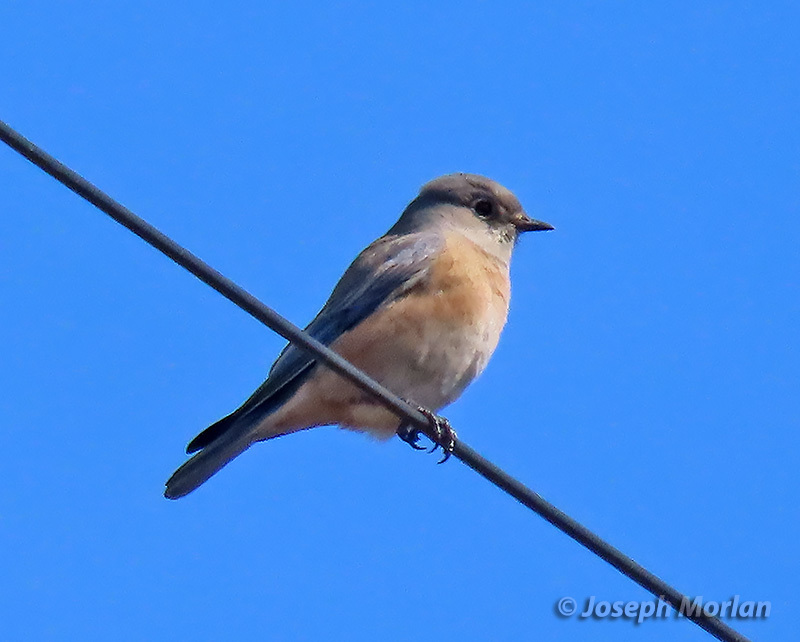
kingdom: Animalia
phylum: Chordata
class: Aves
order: Passeriformes
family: Turdidae
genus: Sialia
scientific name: Sialia mexicana
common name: Western bluebird
